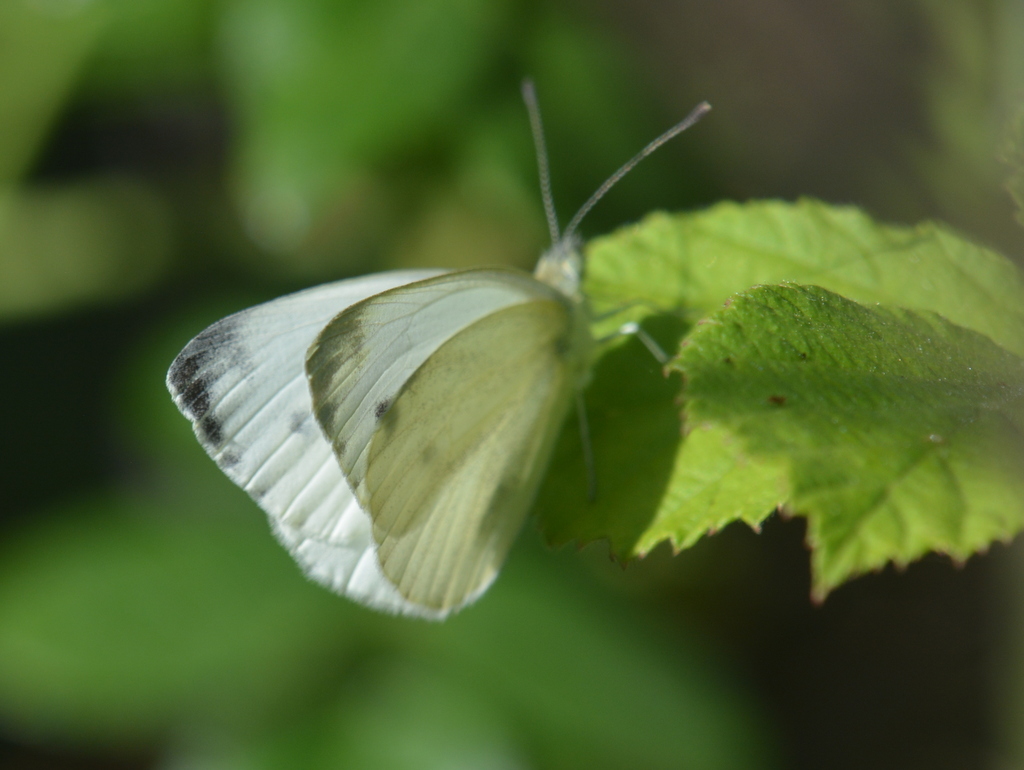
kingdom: Animalia
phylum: Arthropoda
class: Insecta
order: Lepidoptera
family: Pieridae
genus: Pieris
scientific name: Pieris napi
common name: Green-veined white
